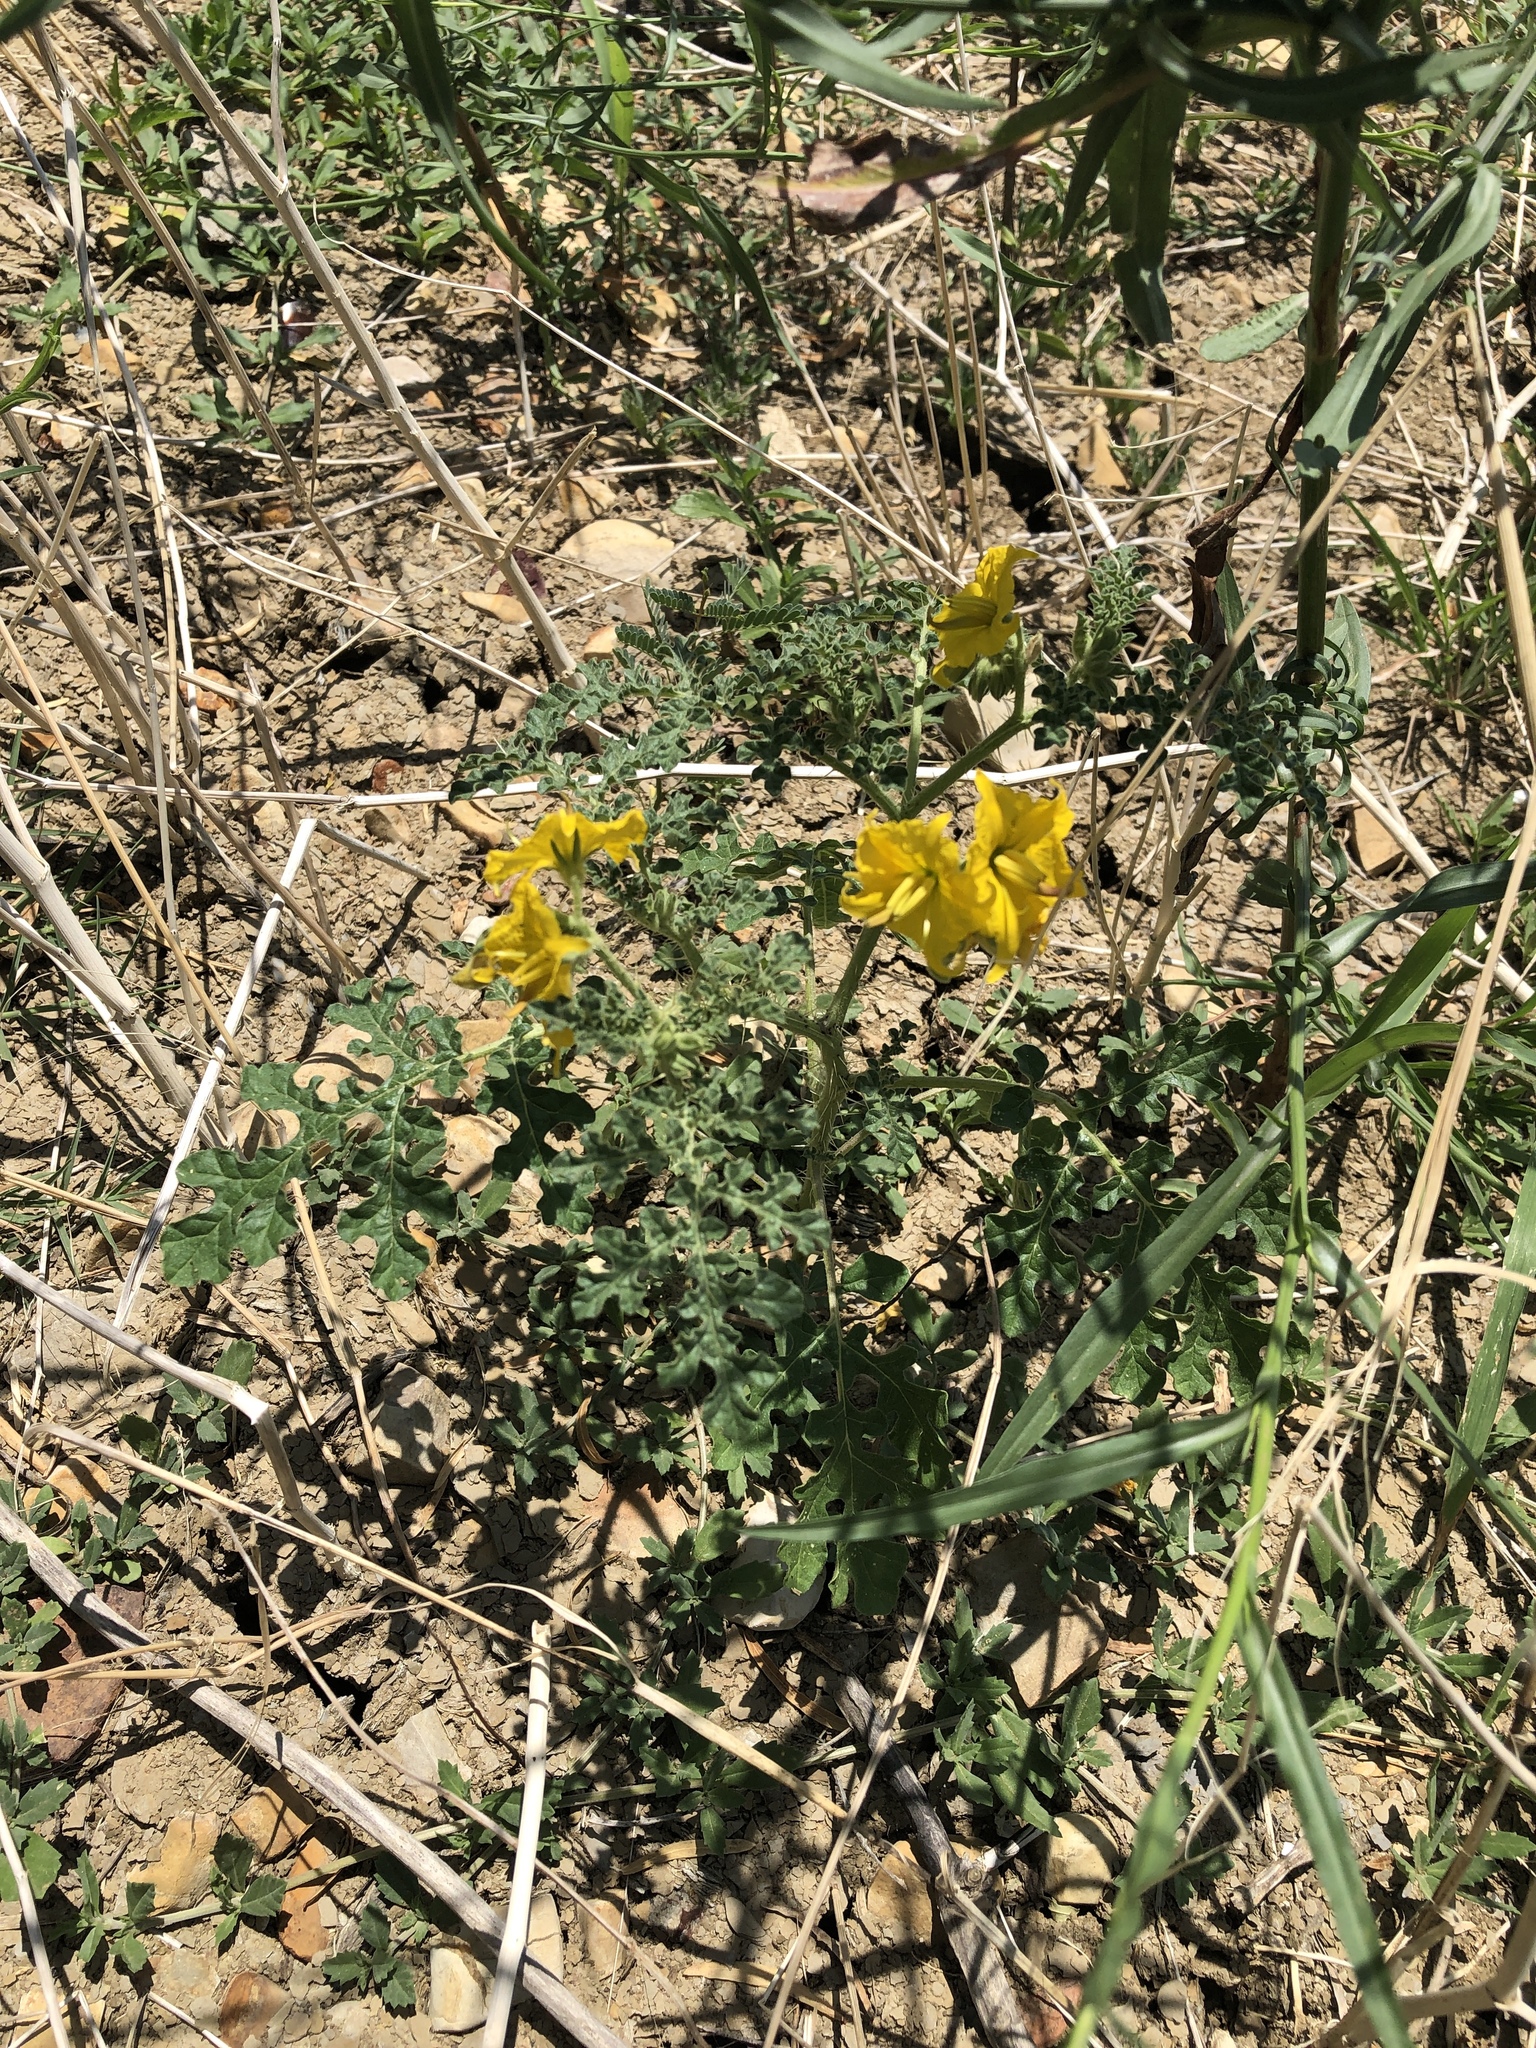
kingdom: Plantae
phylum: Tracheophyta
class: Magnoliopsida
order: Solanales
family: Solanaceae
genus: Solanum
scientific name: Solanum angustifolium
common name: Buffalobur nightshade
